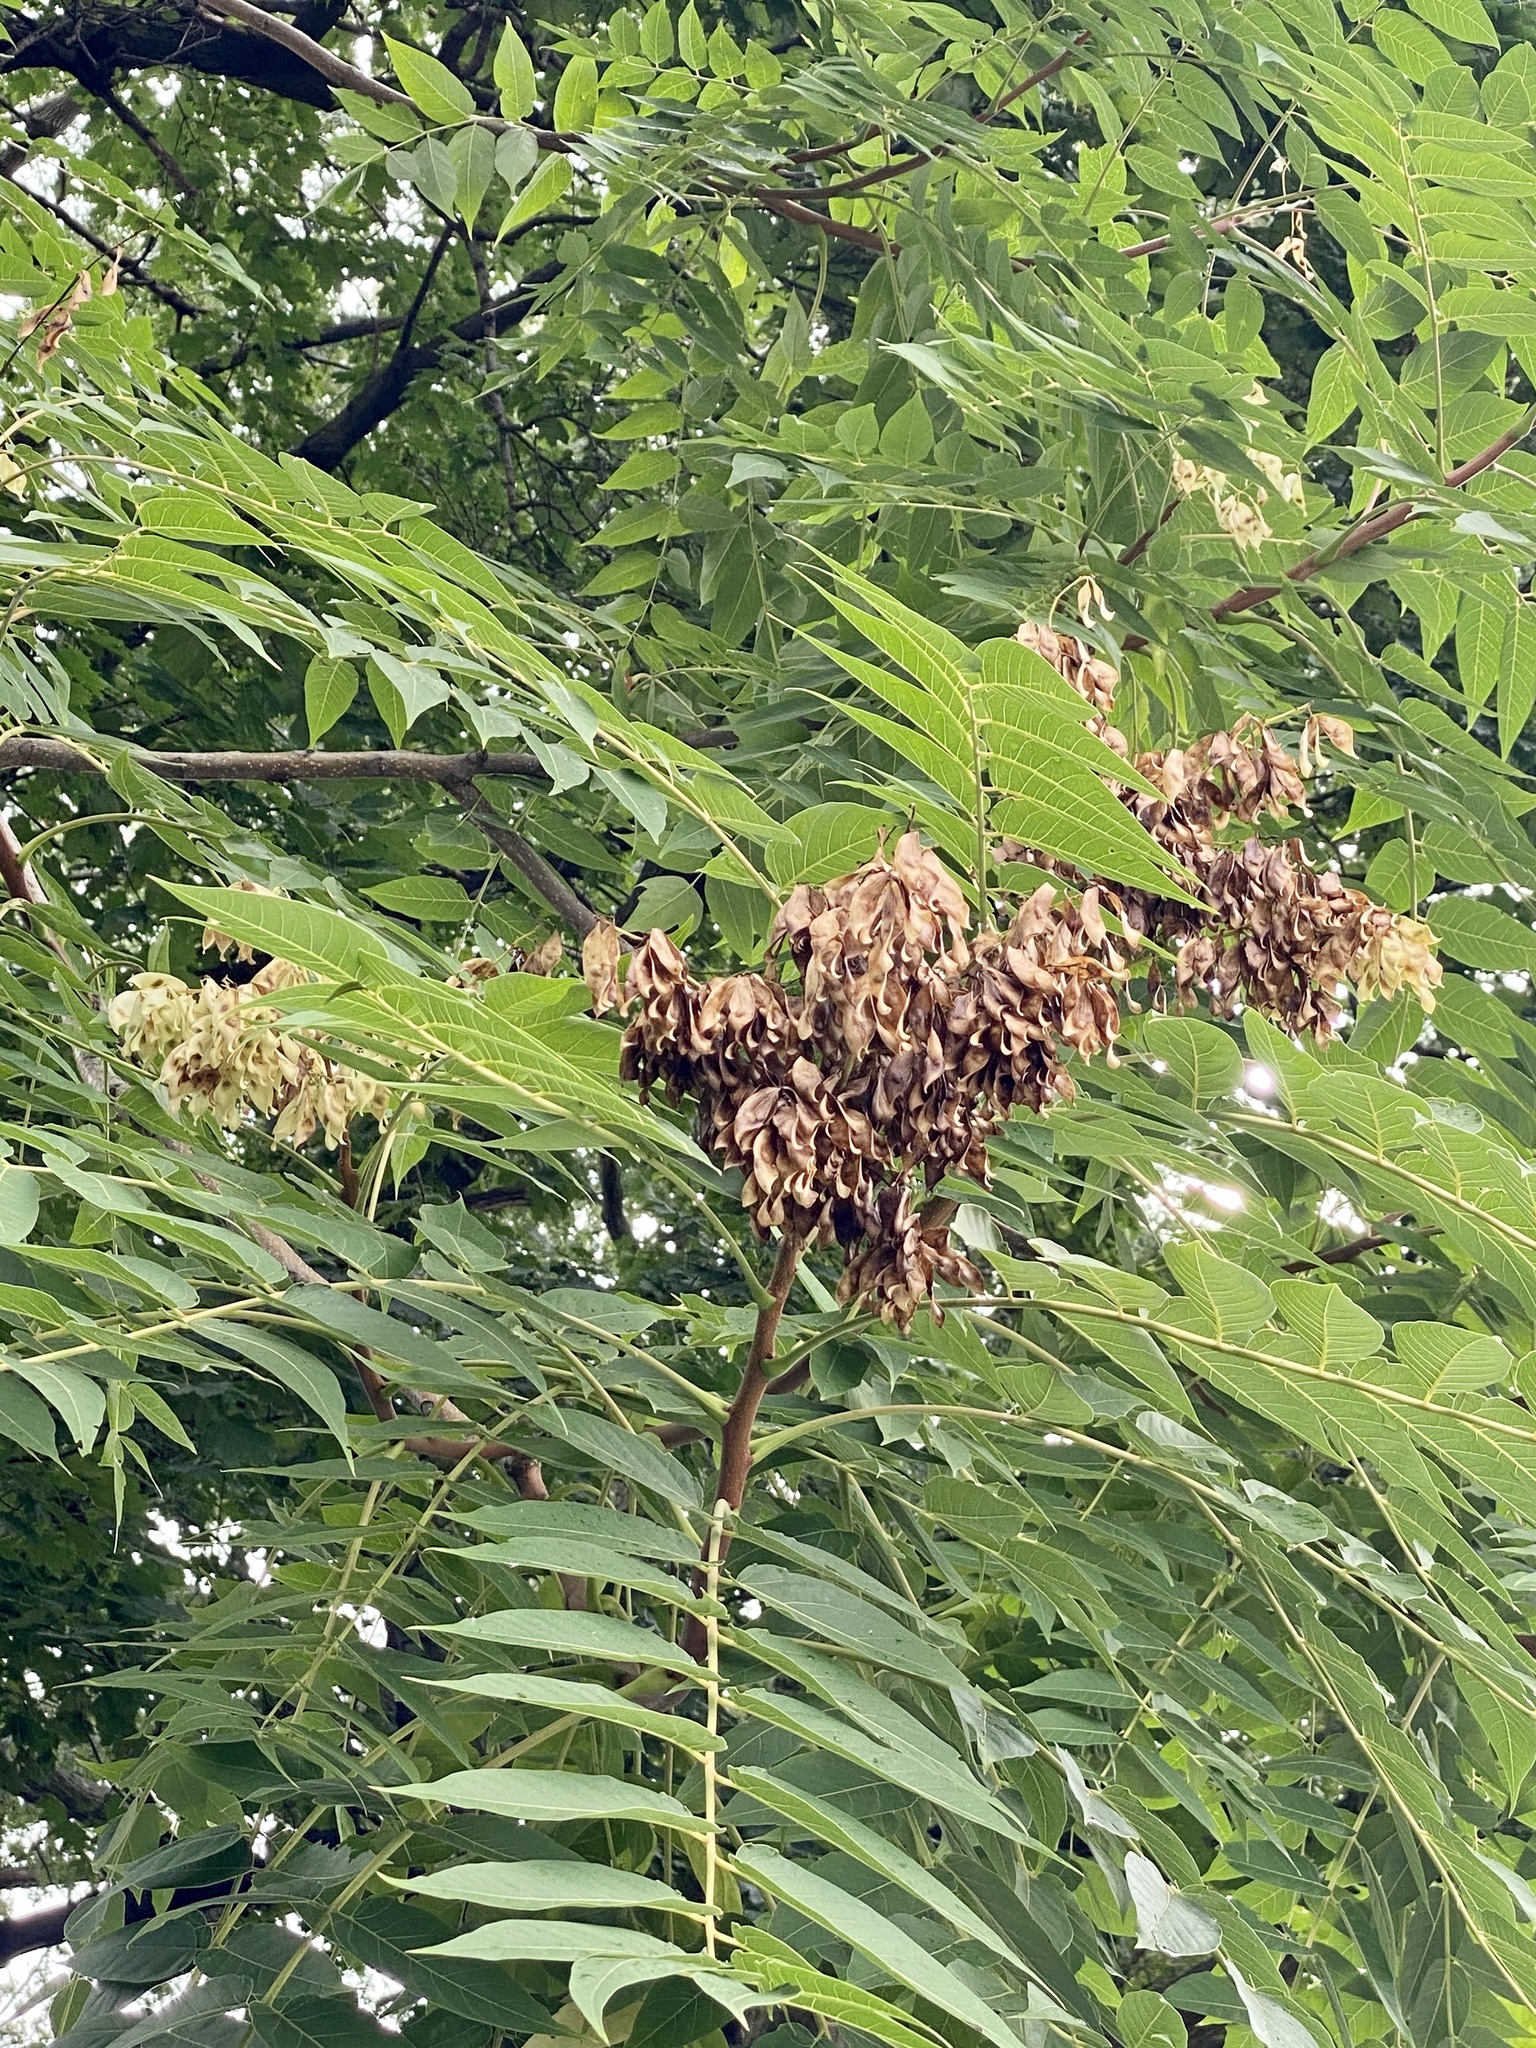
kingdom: Plantae
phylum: Tracheophyta
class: Magnoliopsida
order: Sapindales
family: Simaroubaceae
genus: Ailanthus
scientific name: Ailanthus altissima
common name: Tree-of-heaven
